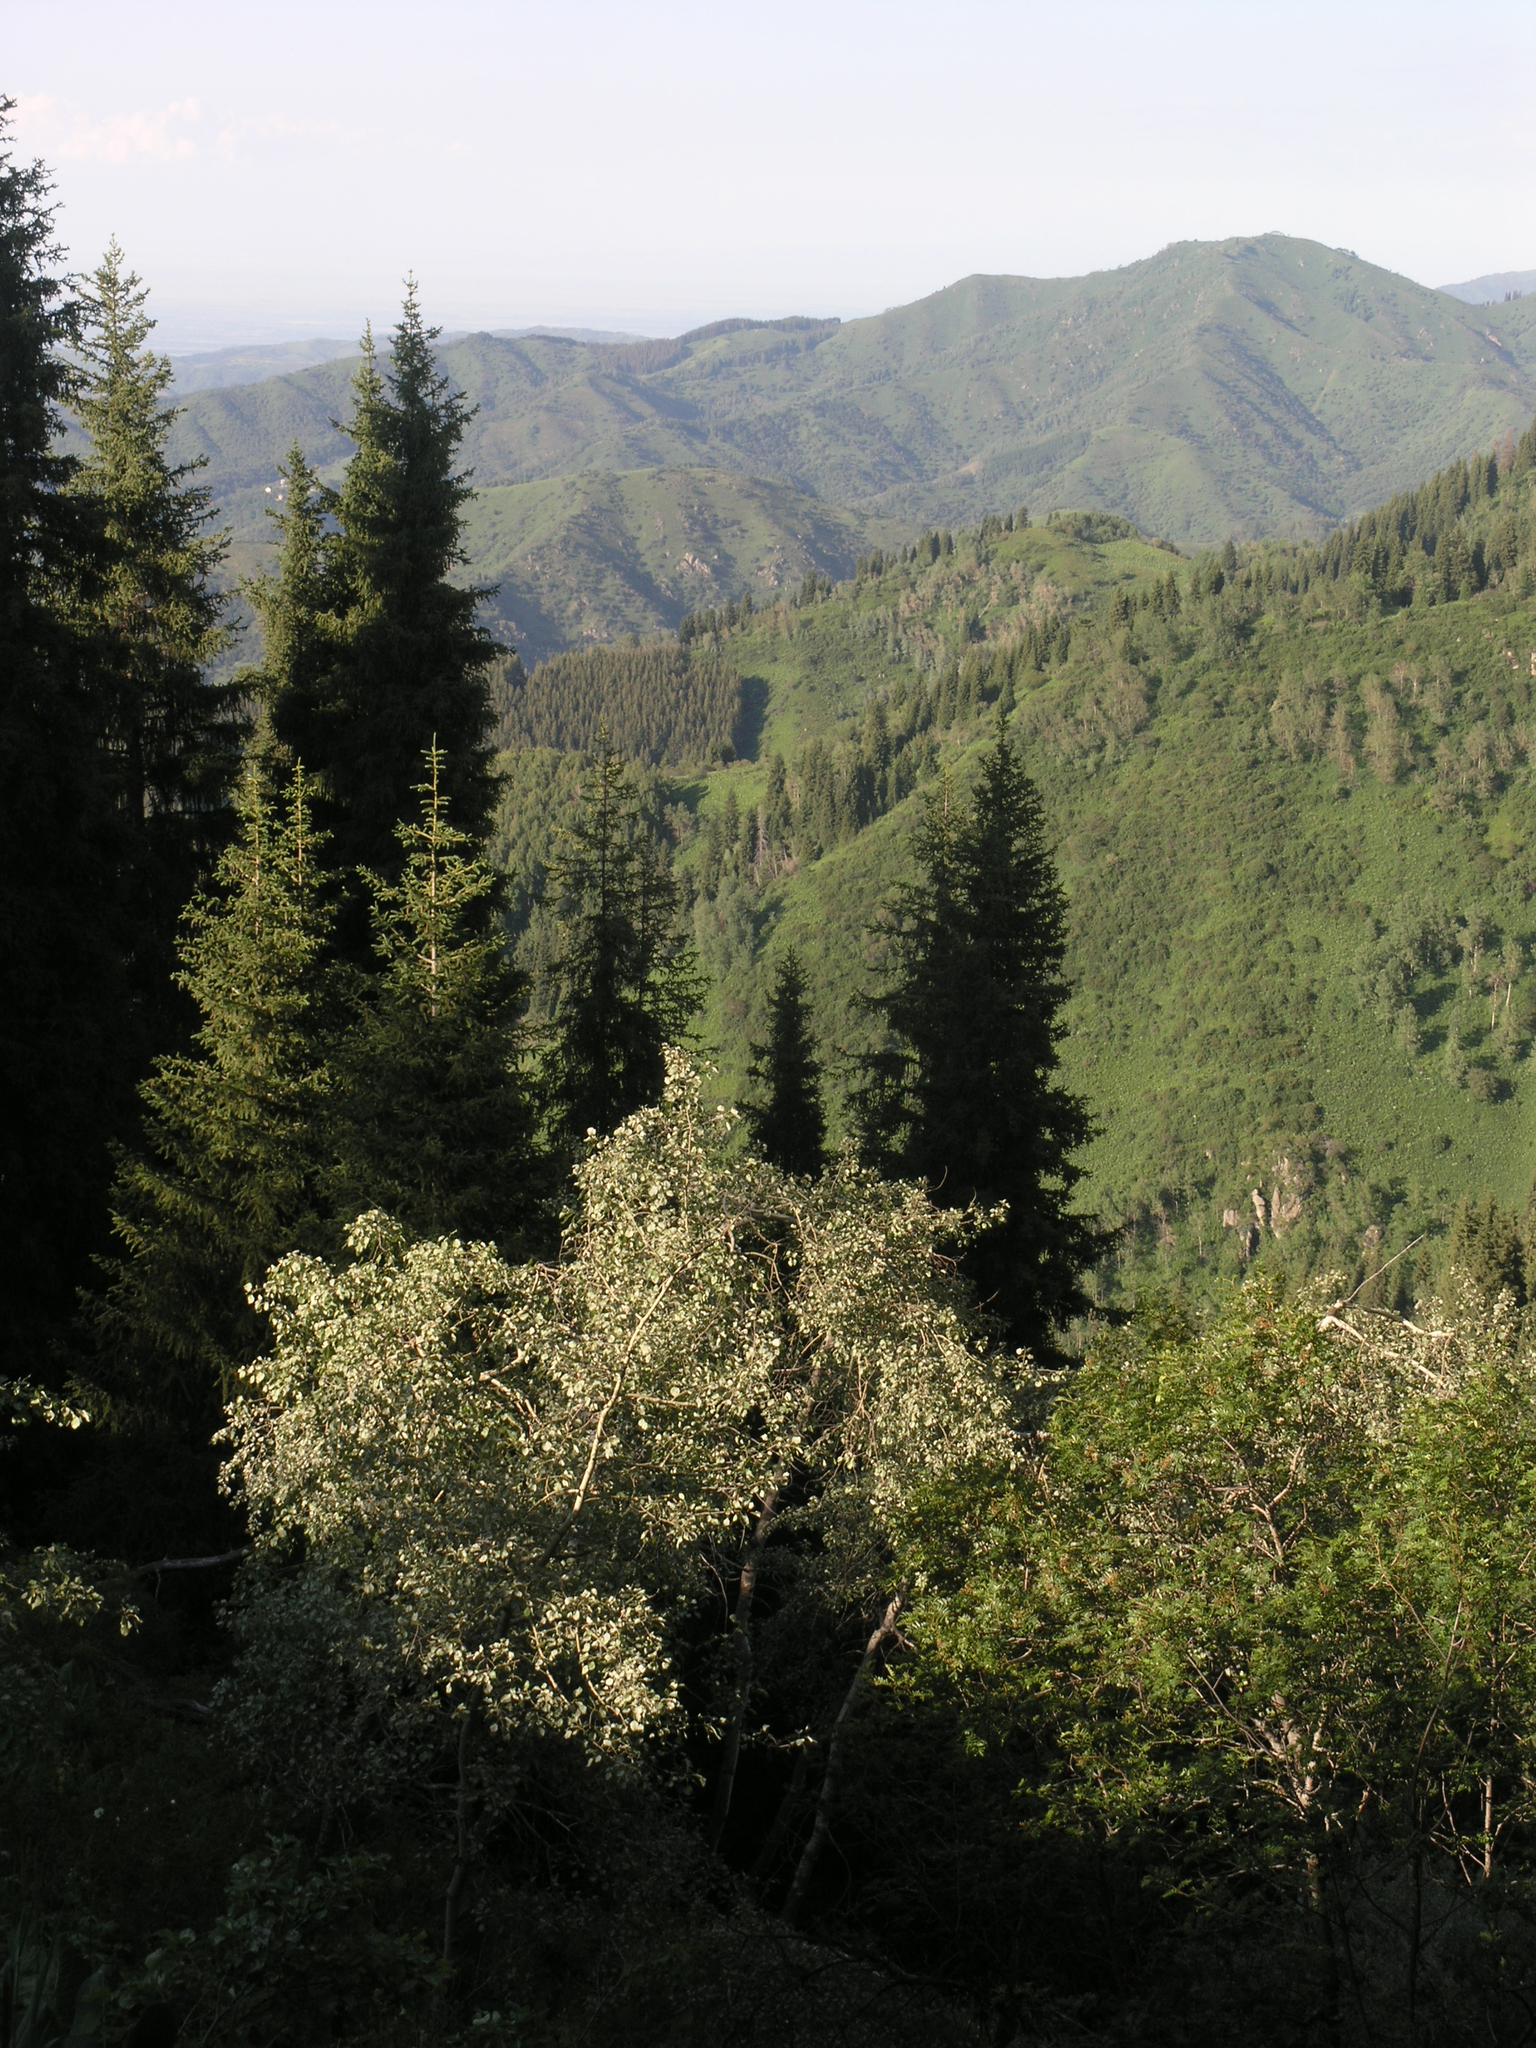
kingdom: Plantae
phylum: Tracheophyta
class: Pinopsida
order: Pinales
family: Pinaceae
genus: Picea
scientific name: Picea schrenkiana
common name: Asian spruce
